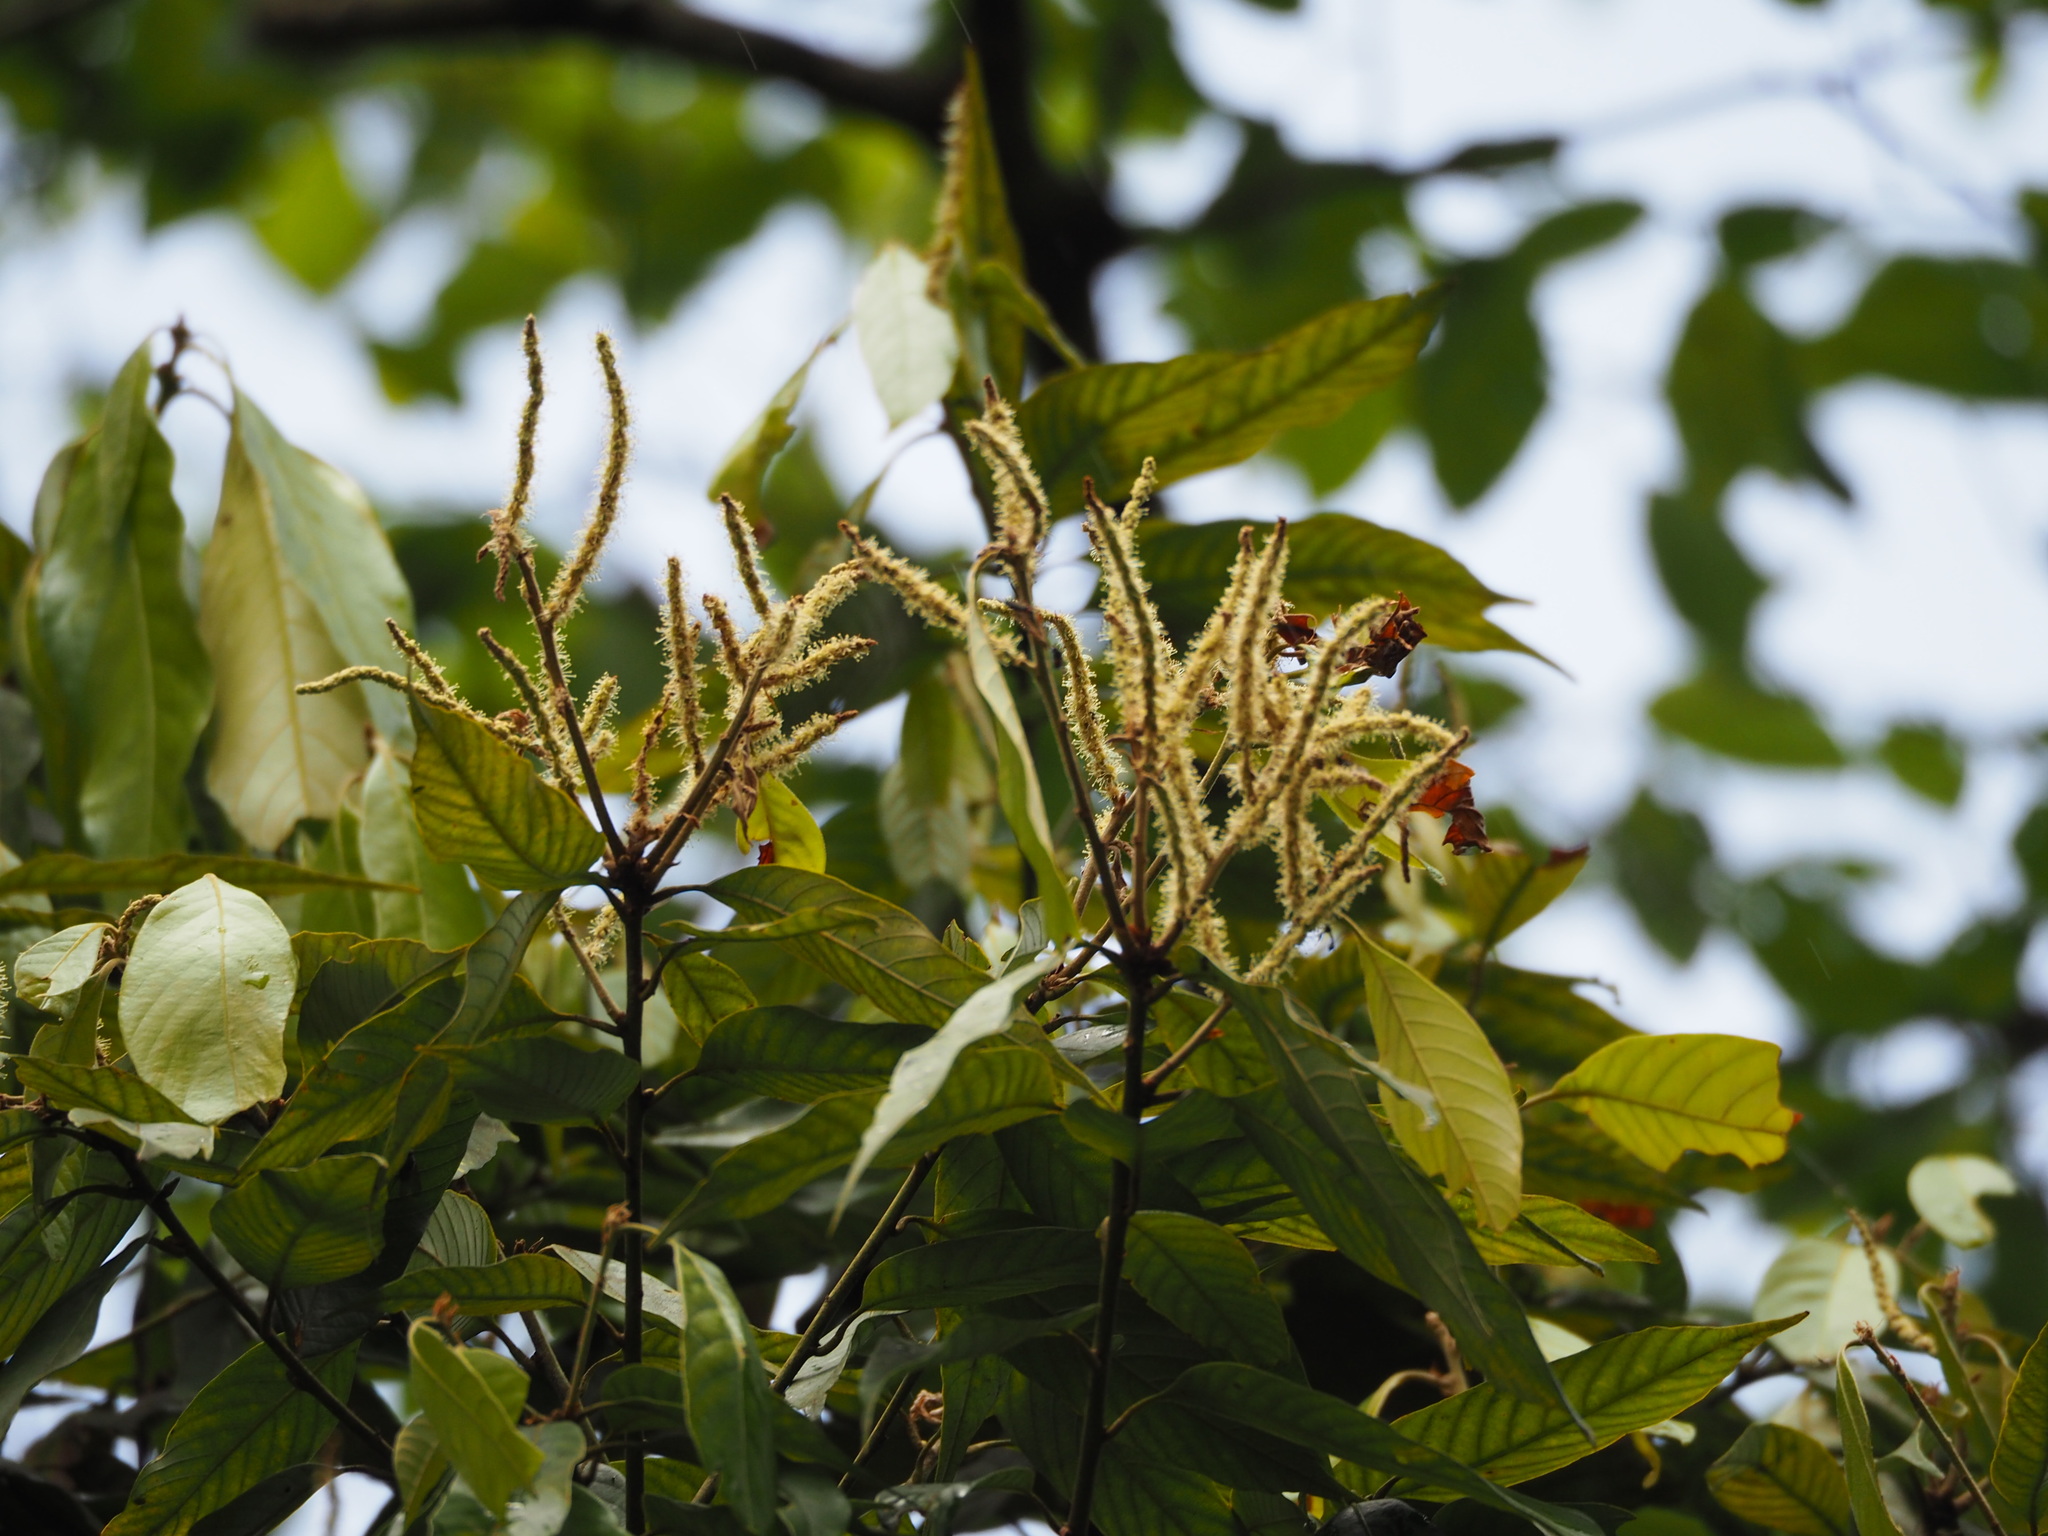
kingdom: Plantae
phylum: Tracheophyta
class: Magnoliopsida
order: Fagales
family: Fagaceae
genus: Lithocarpus
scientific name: Lithocarpus amygdalifolius
